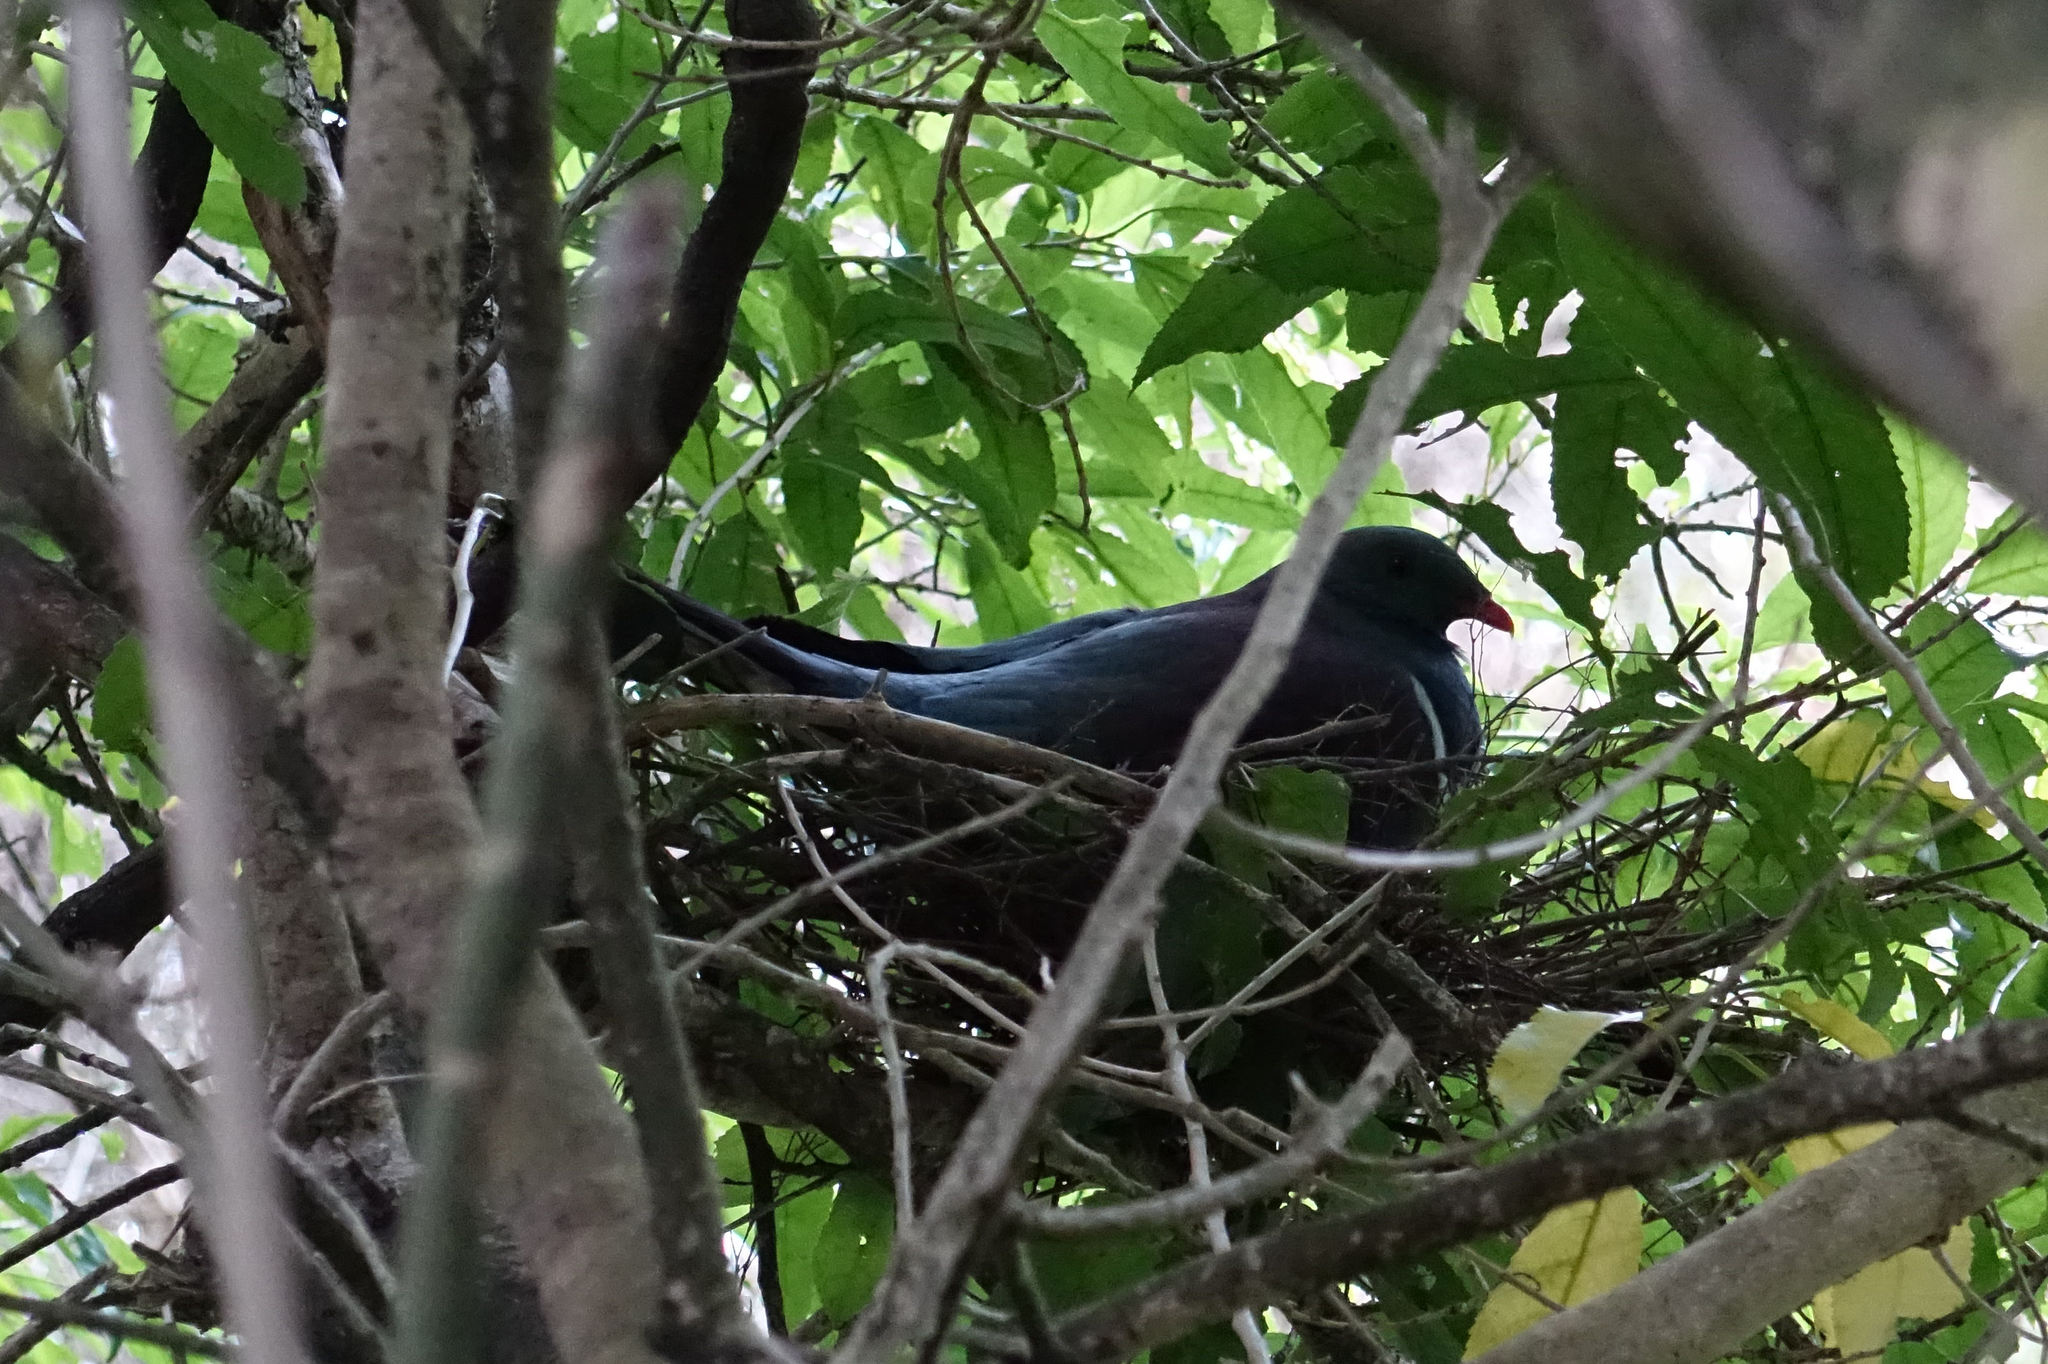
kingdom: Animalia
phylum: Chordata
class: Aves
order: Columbiformes
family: Columbidae
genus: Hemiphaga
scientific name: Hemiphaga novaeseelandiae
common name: New zealand pigeon
